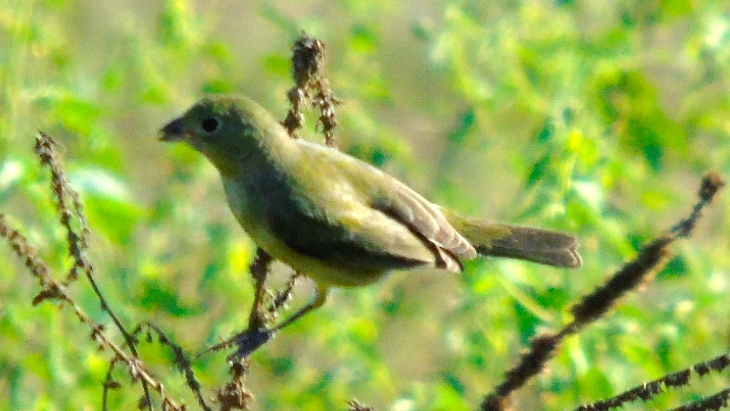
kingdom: Animalia
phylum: Chordata
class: Aves
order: Passeriformes
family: Cardinalidae
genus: Passerina
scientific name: Passerina ciris
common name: Painted bunting
